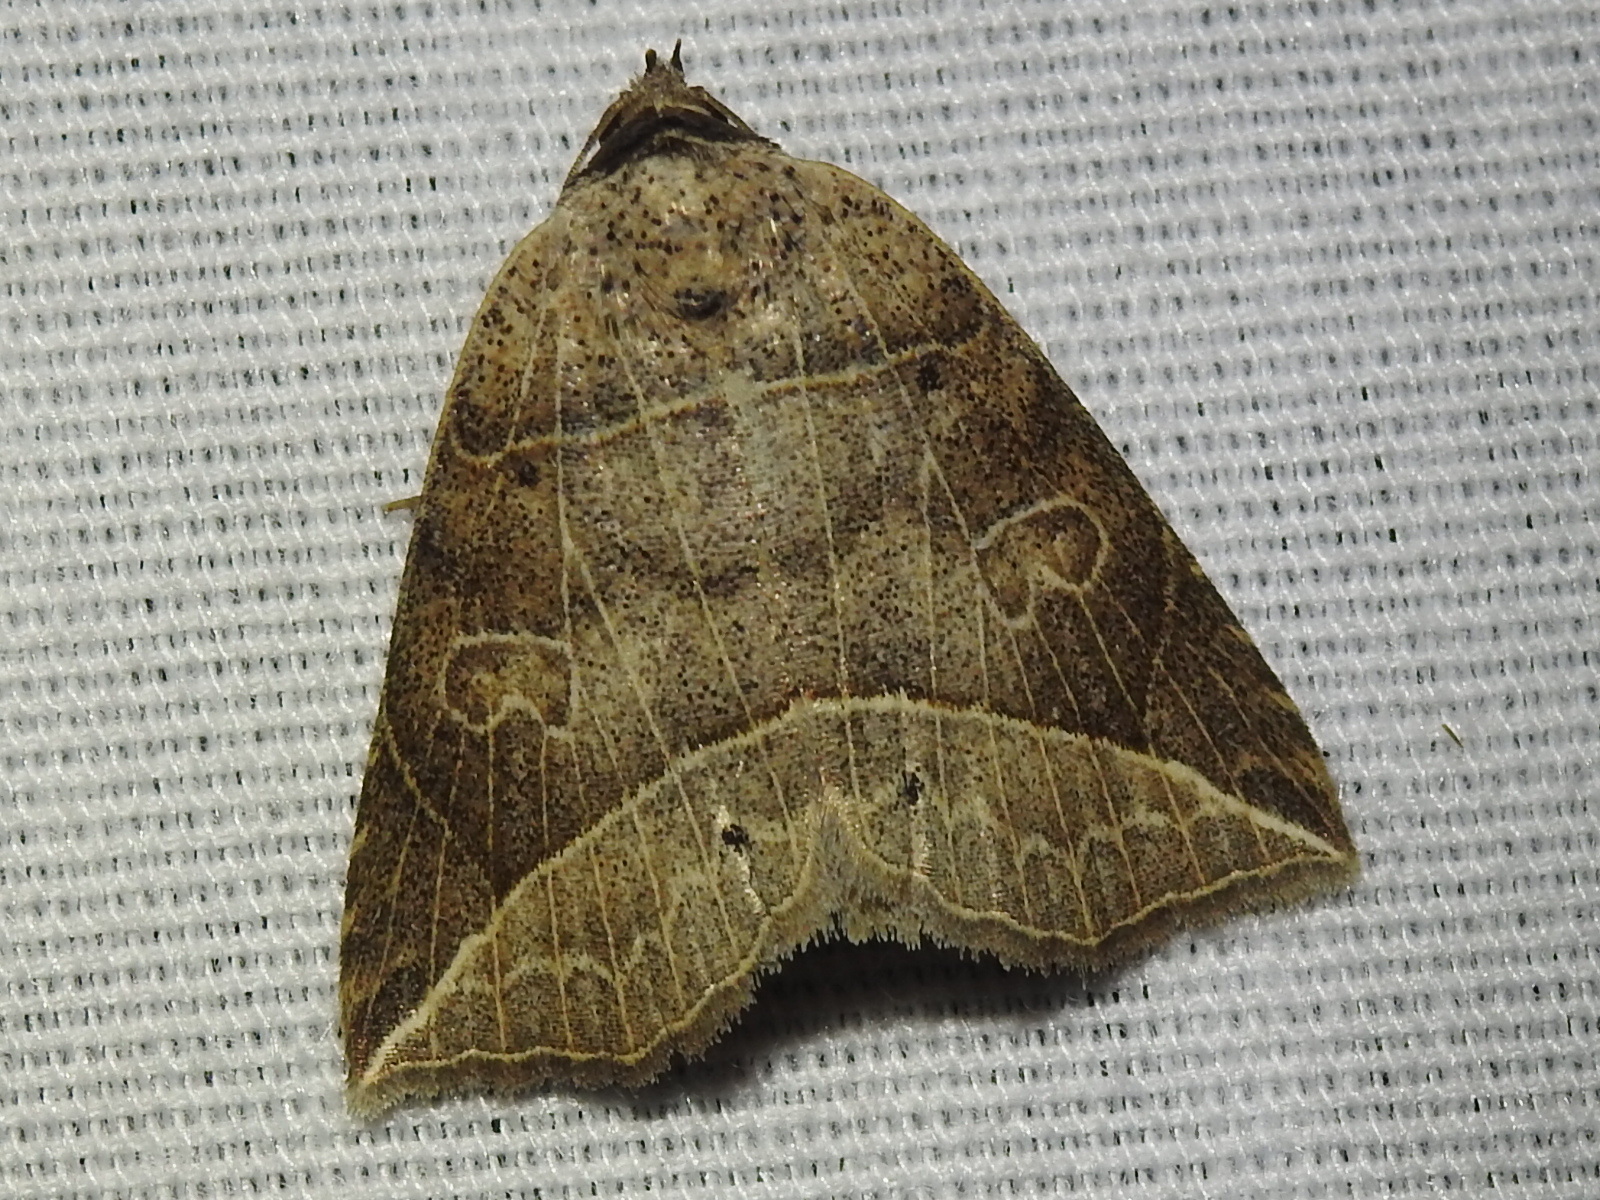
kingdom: Animalia
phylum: Arthropoda
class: Insecta
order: Lepidoptera
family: Erebidae
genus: Isogona
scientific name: Isogona tenuis
